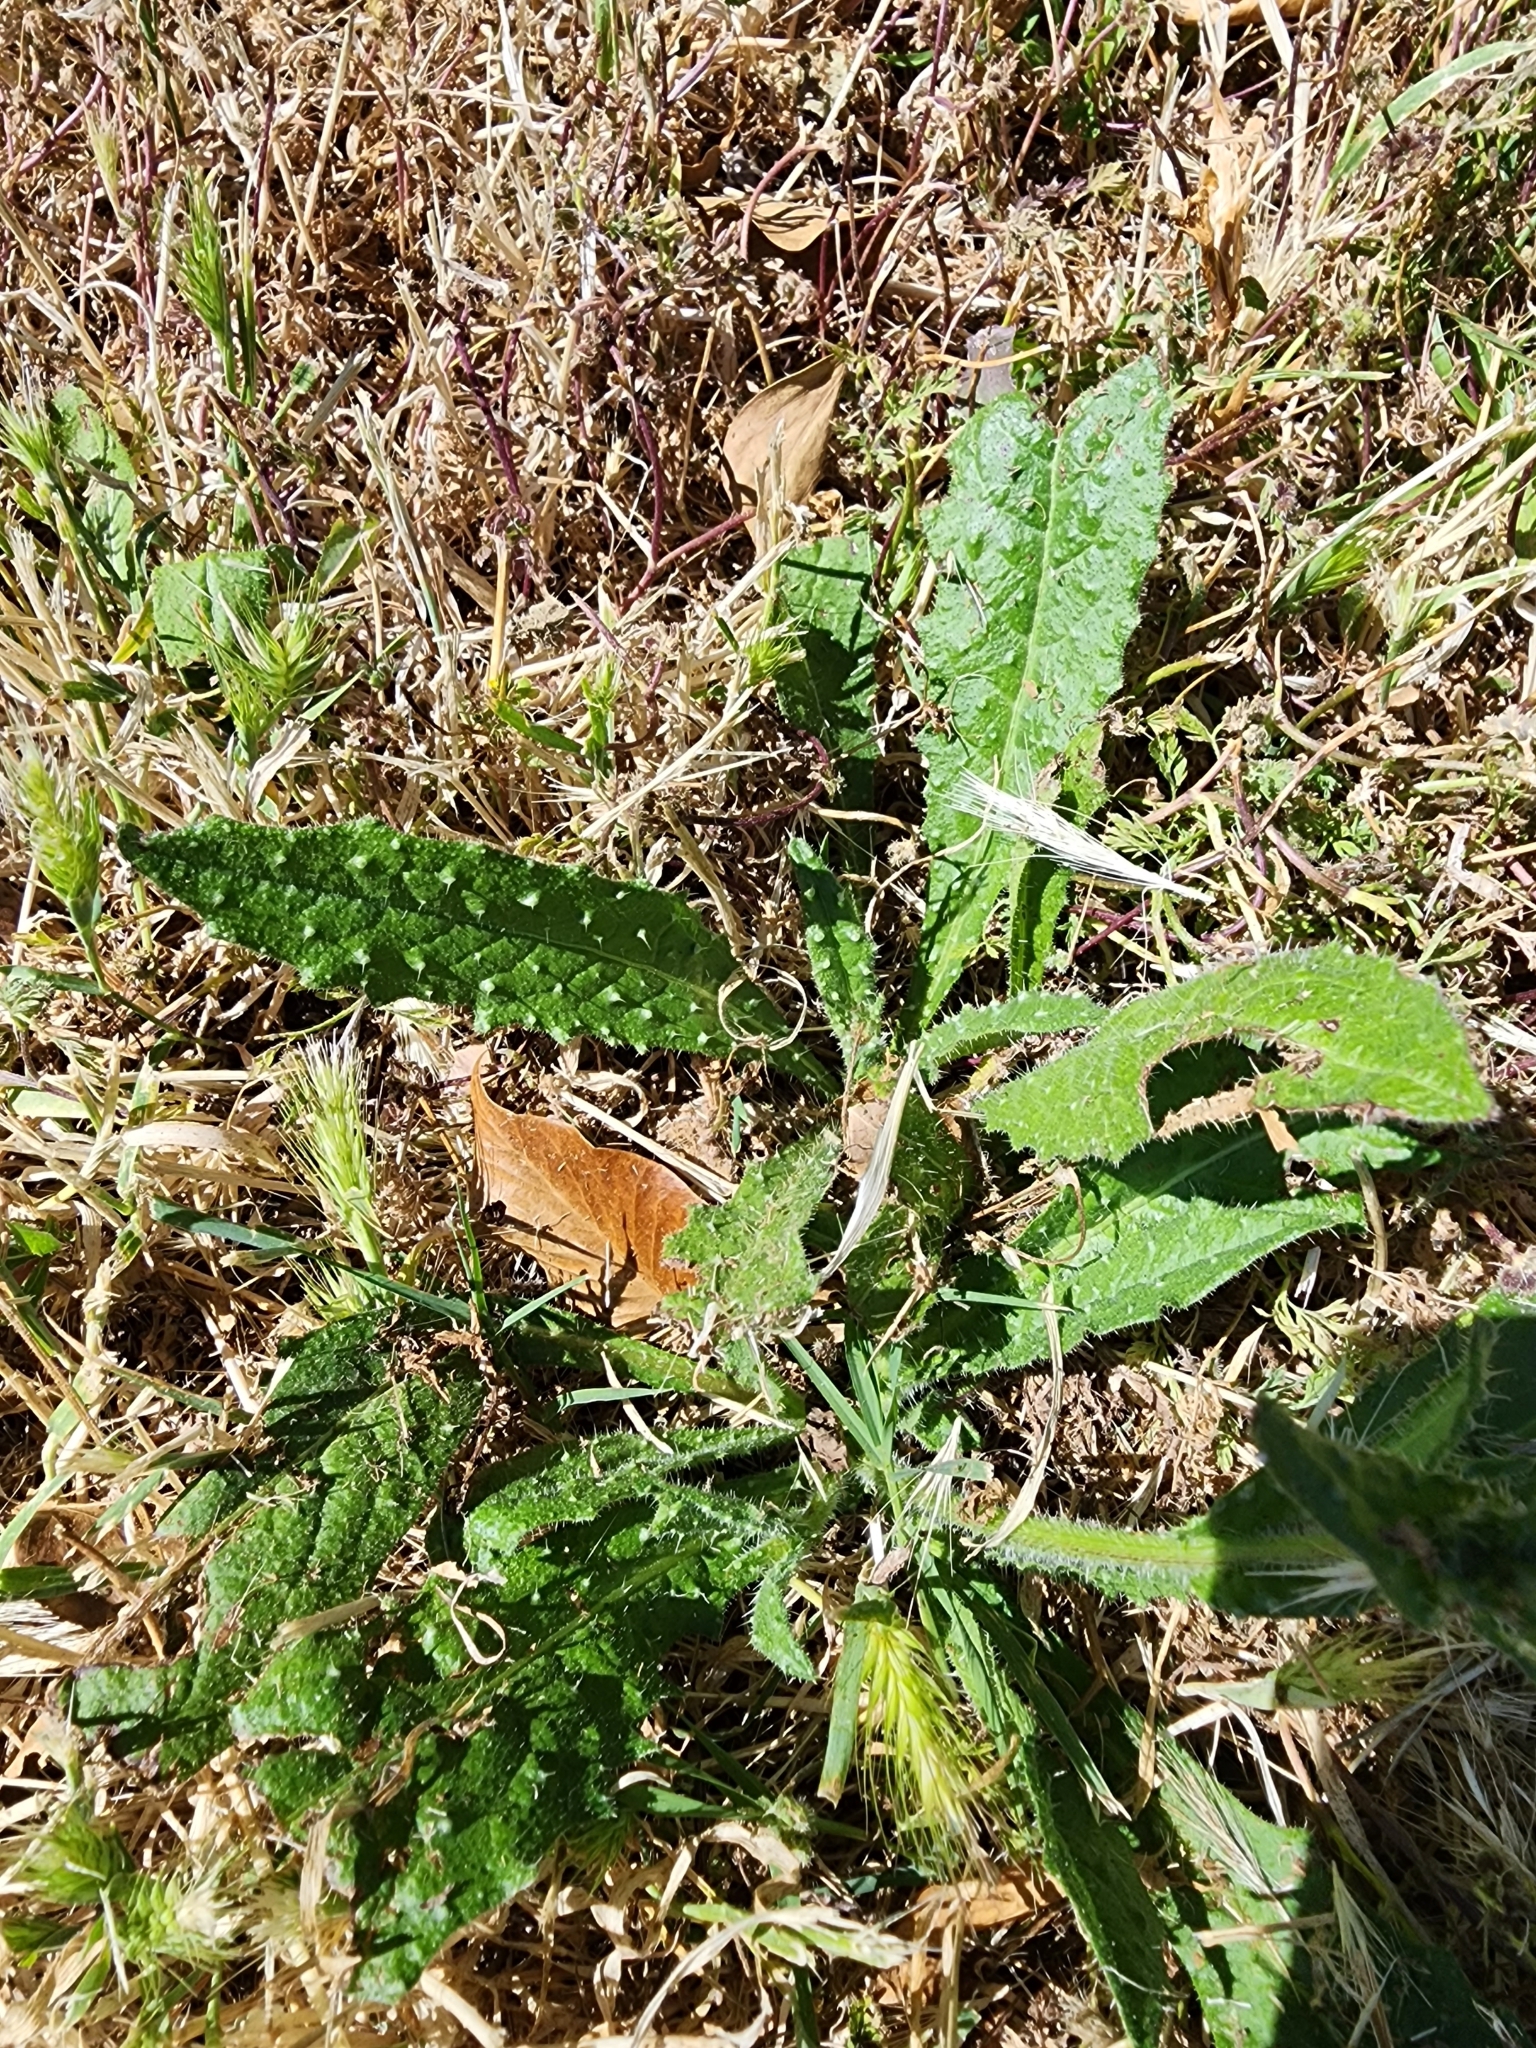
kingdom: Plantae
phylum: Tracheophyta
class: Magnoliopsida
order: Asterales
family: Asteraceae
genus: Helminthotheca
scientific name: Helminthotheca echioides
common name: Ox-tongue
